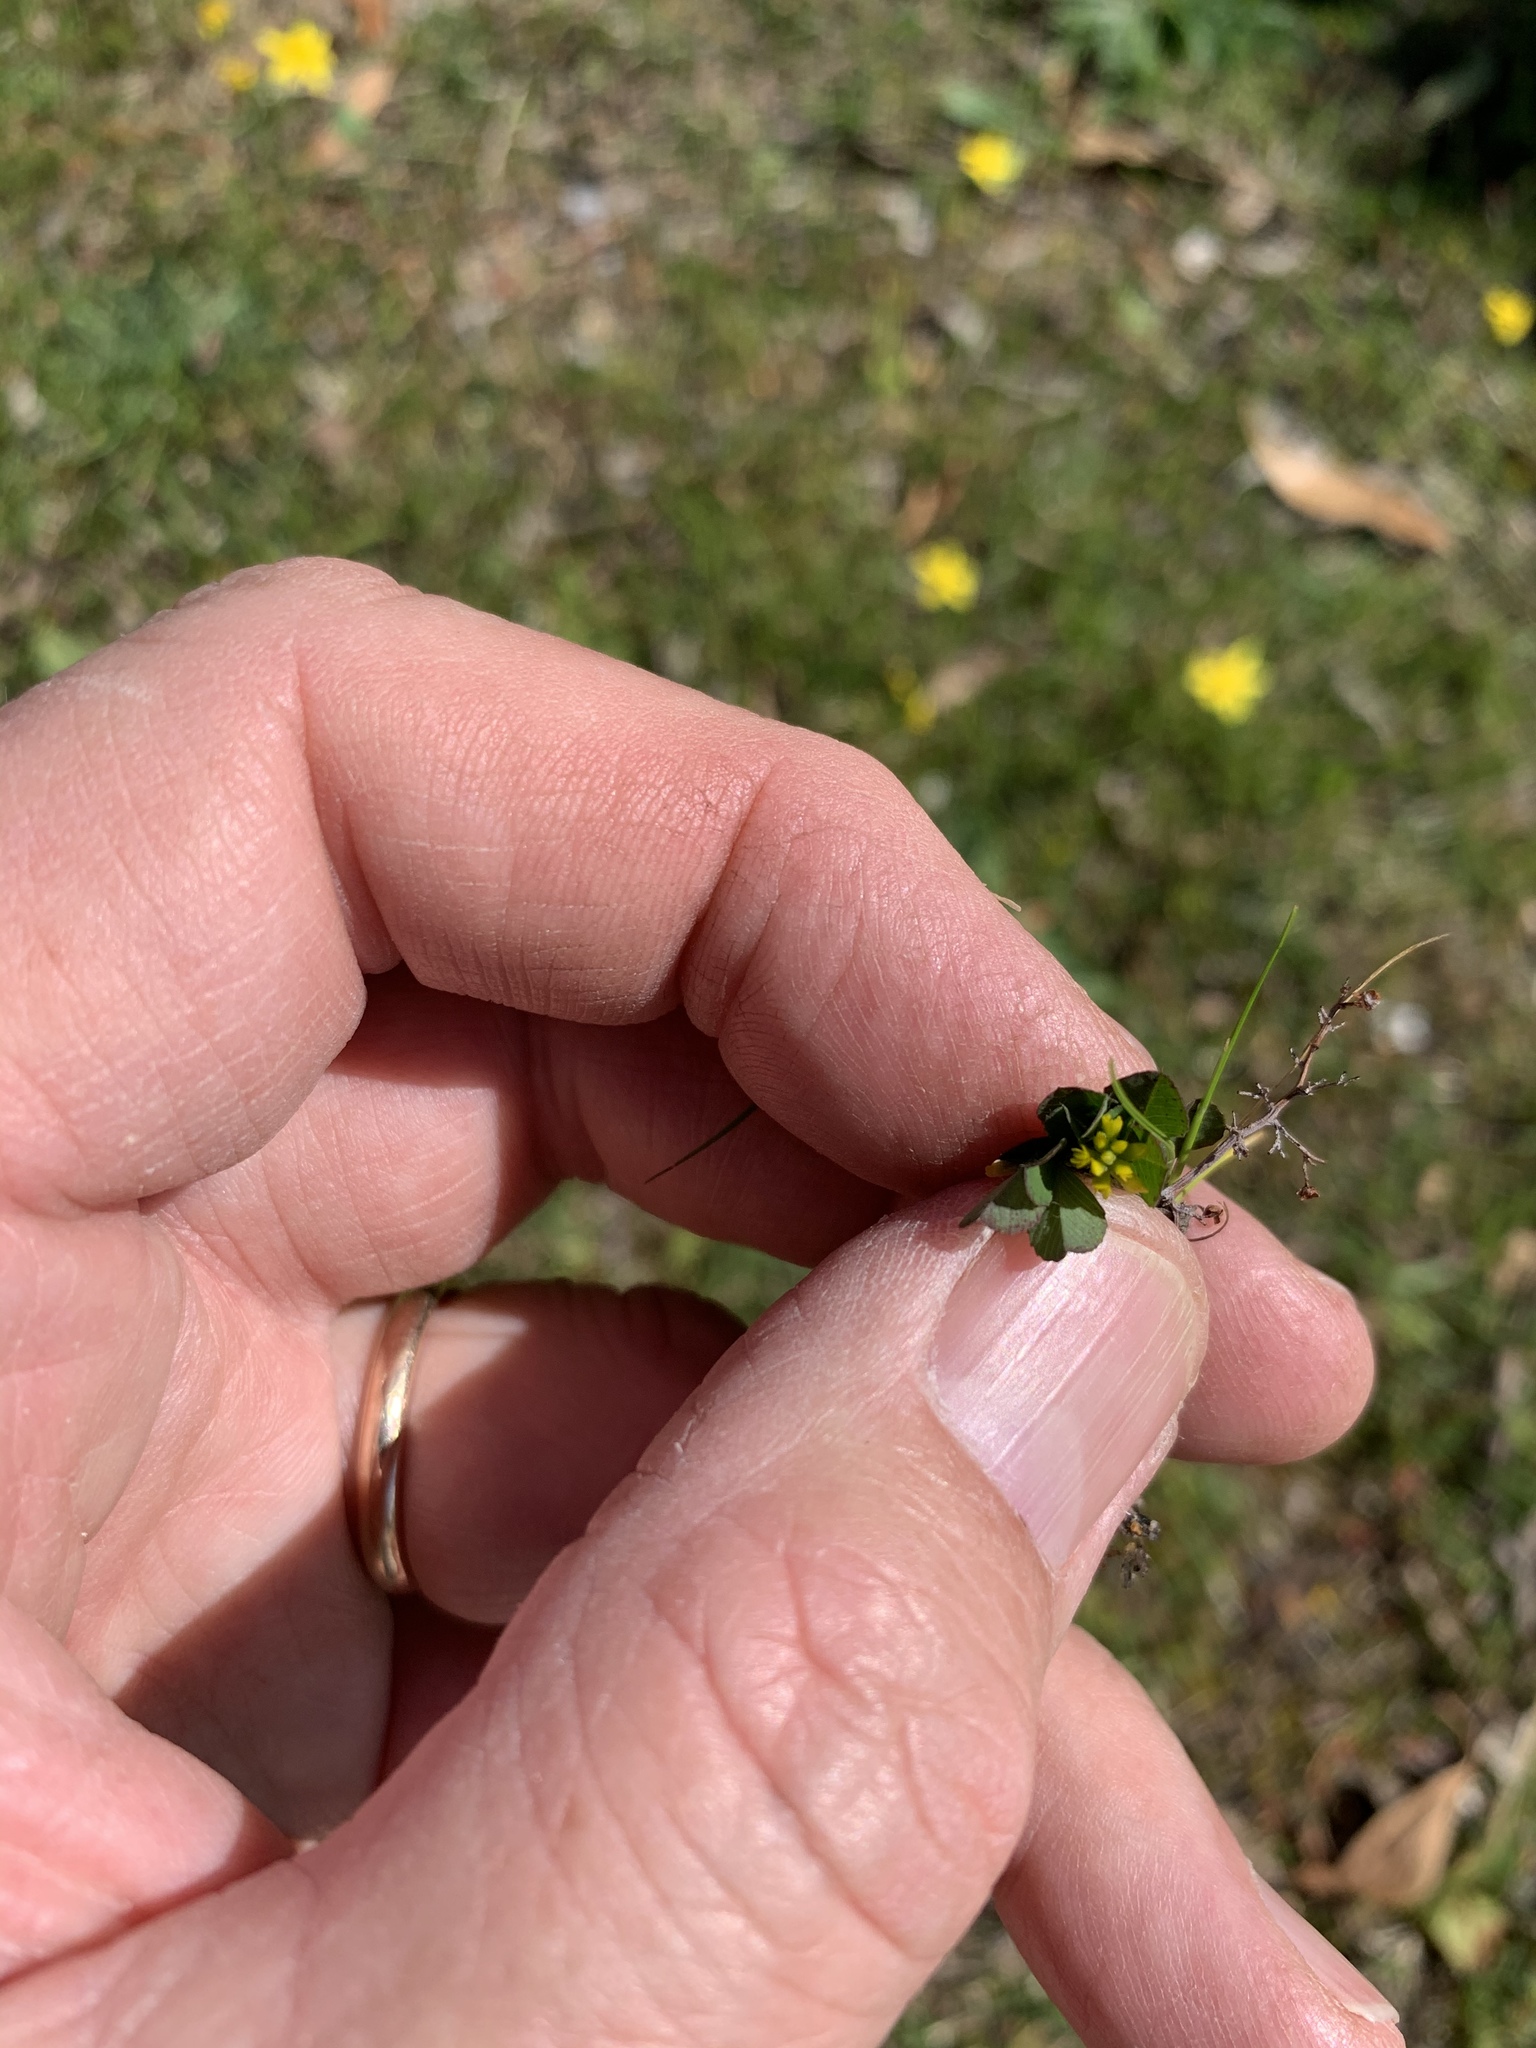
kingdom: Plantae
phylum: Tracheophyta
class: Magnoliopsida
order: Fabales
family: Fabaceae
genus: Trifolium
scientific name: Trifolium dubium
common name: Suckling clover
